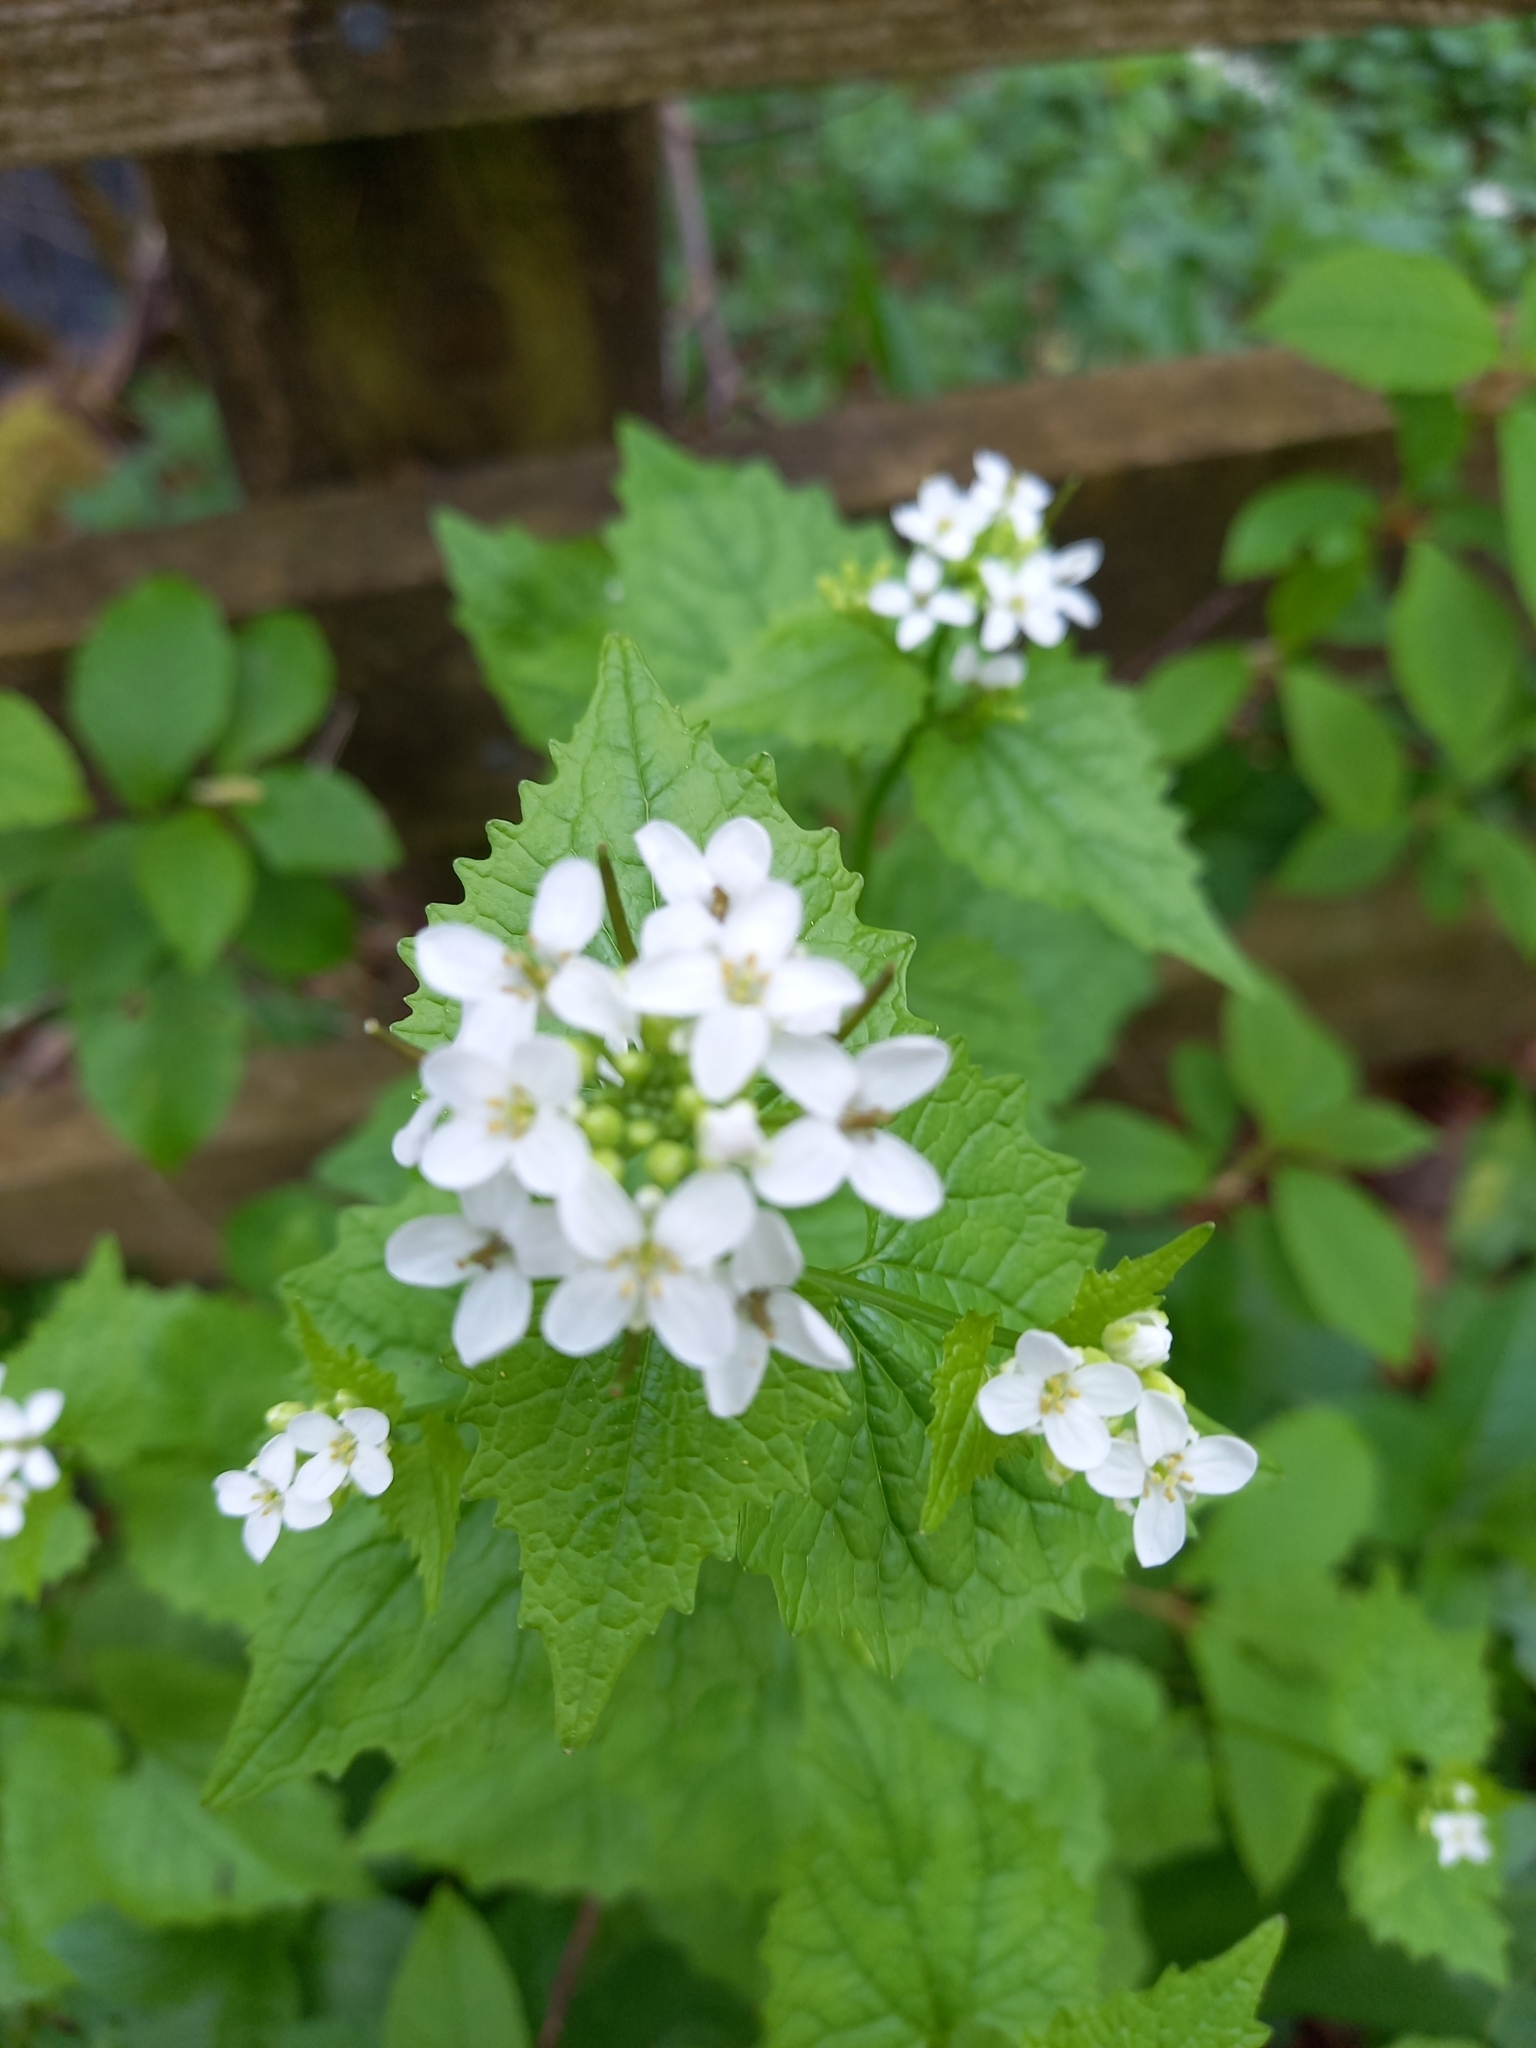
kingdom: Plantae
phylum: Tracheophyta
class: Magnoliopsida
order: Brassicales
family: Brassicaceae
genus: Alliaria
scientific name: Alliaria petiolata
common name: Garlic mustard
